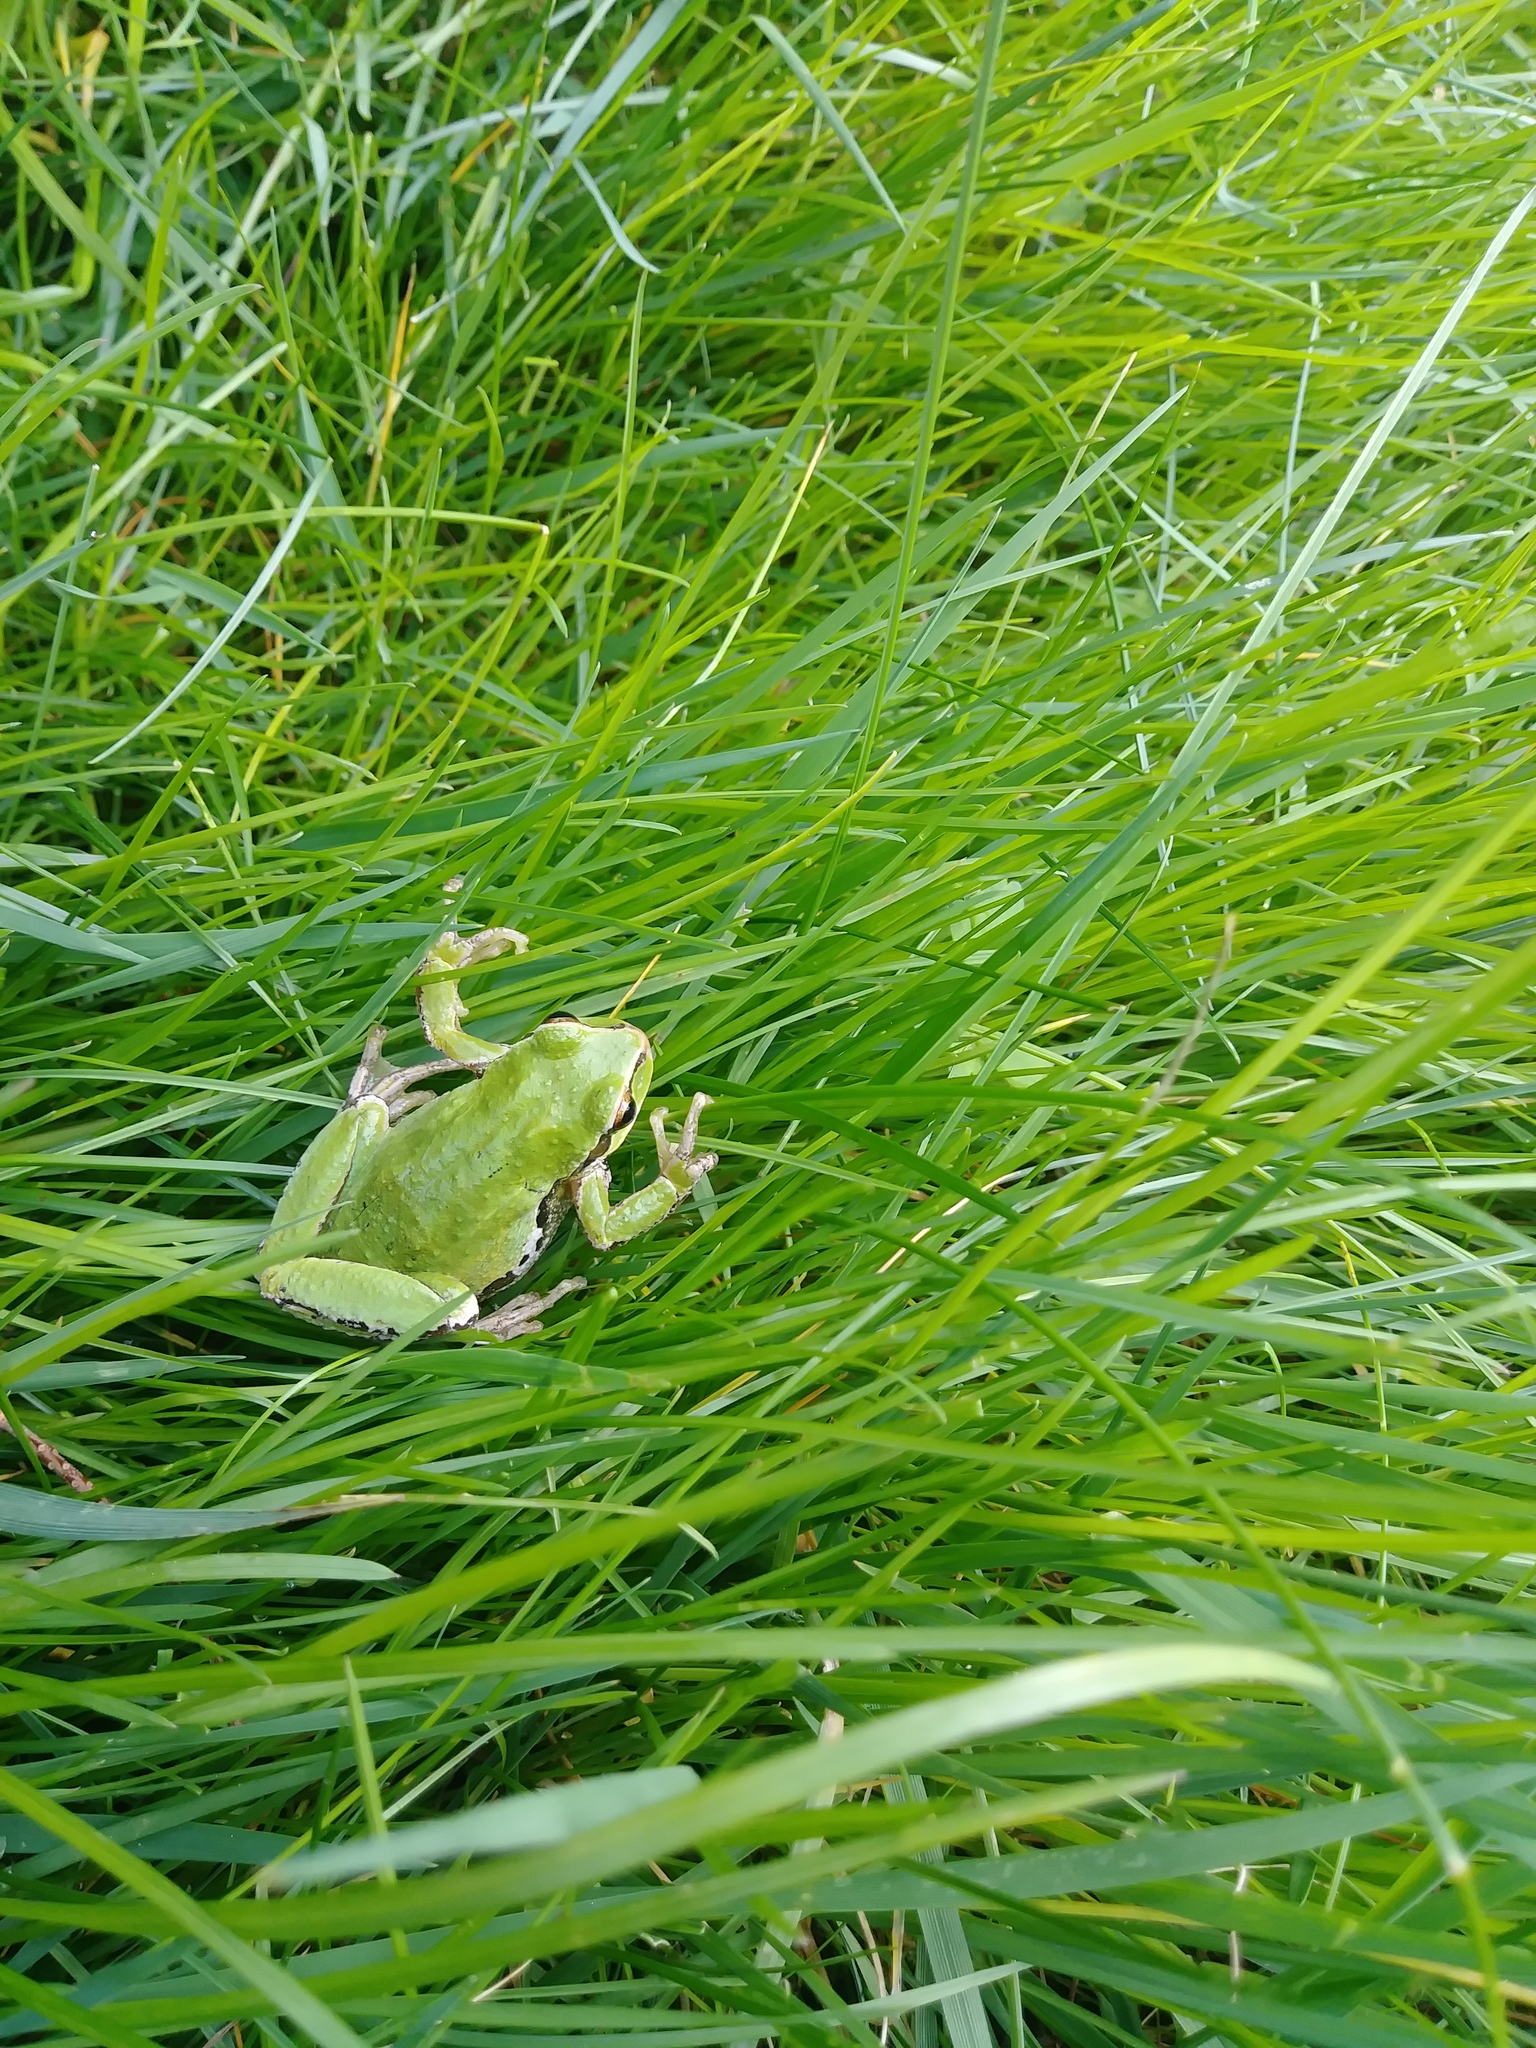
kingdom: Animalia
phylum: Chordata
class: Amphibia
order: Anura
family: Hylidae
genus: Pseudacris
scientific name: Pseudacris regilla
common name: Pacific chorus frog
